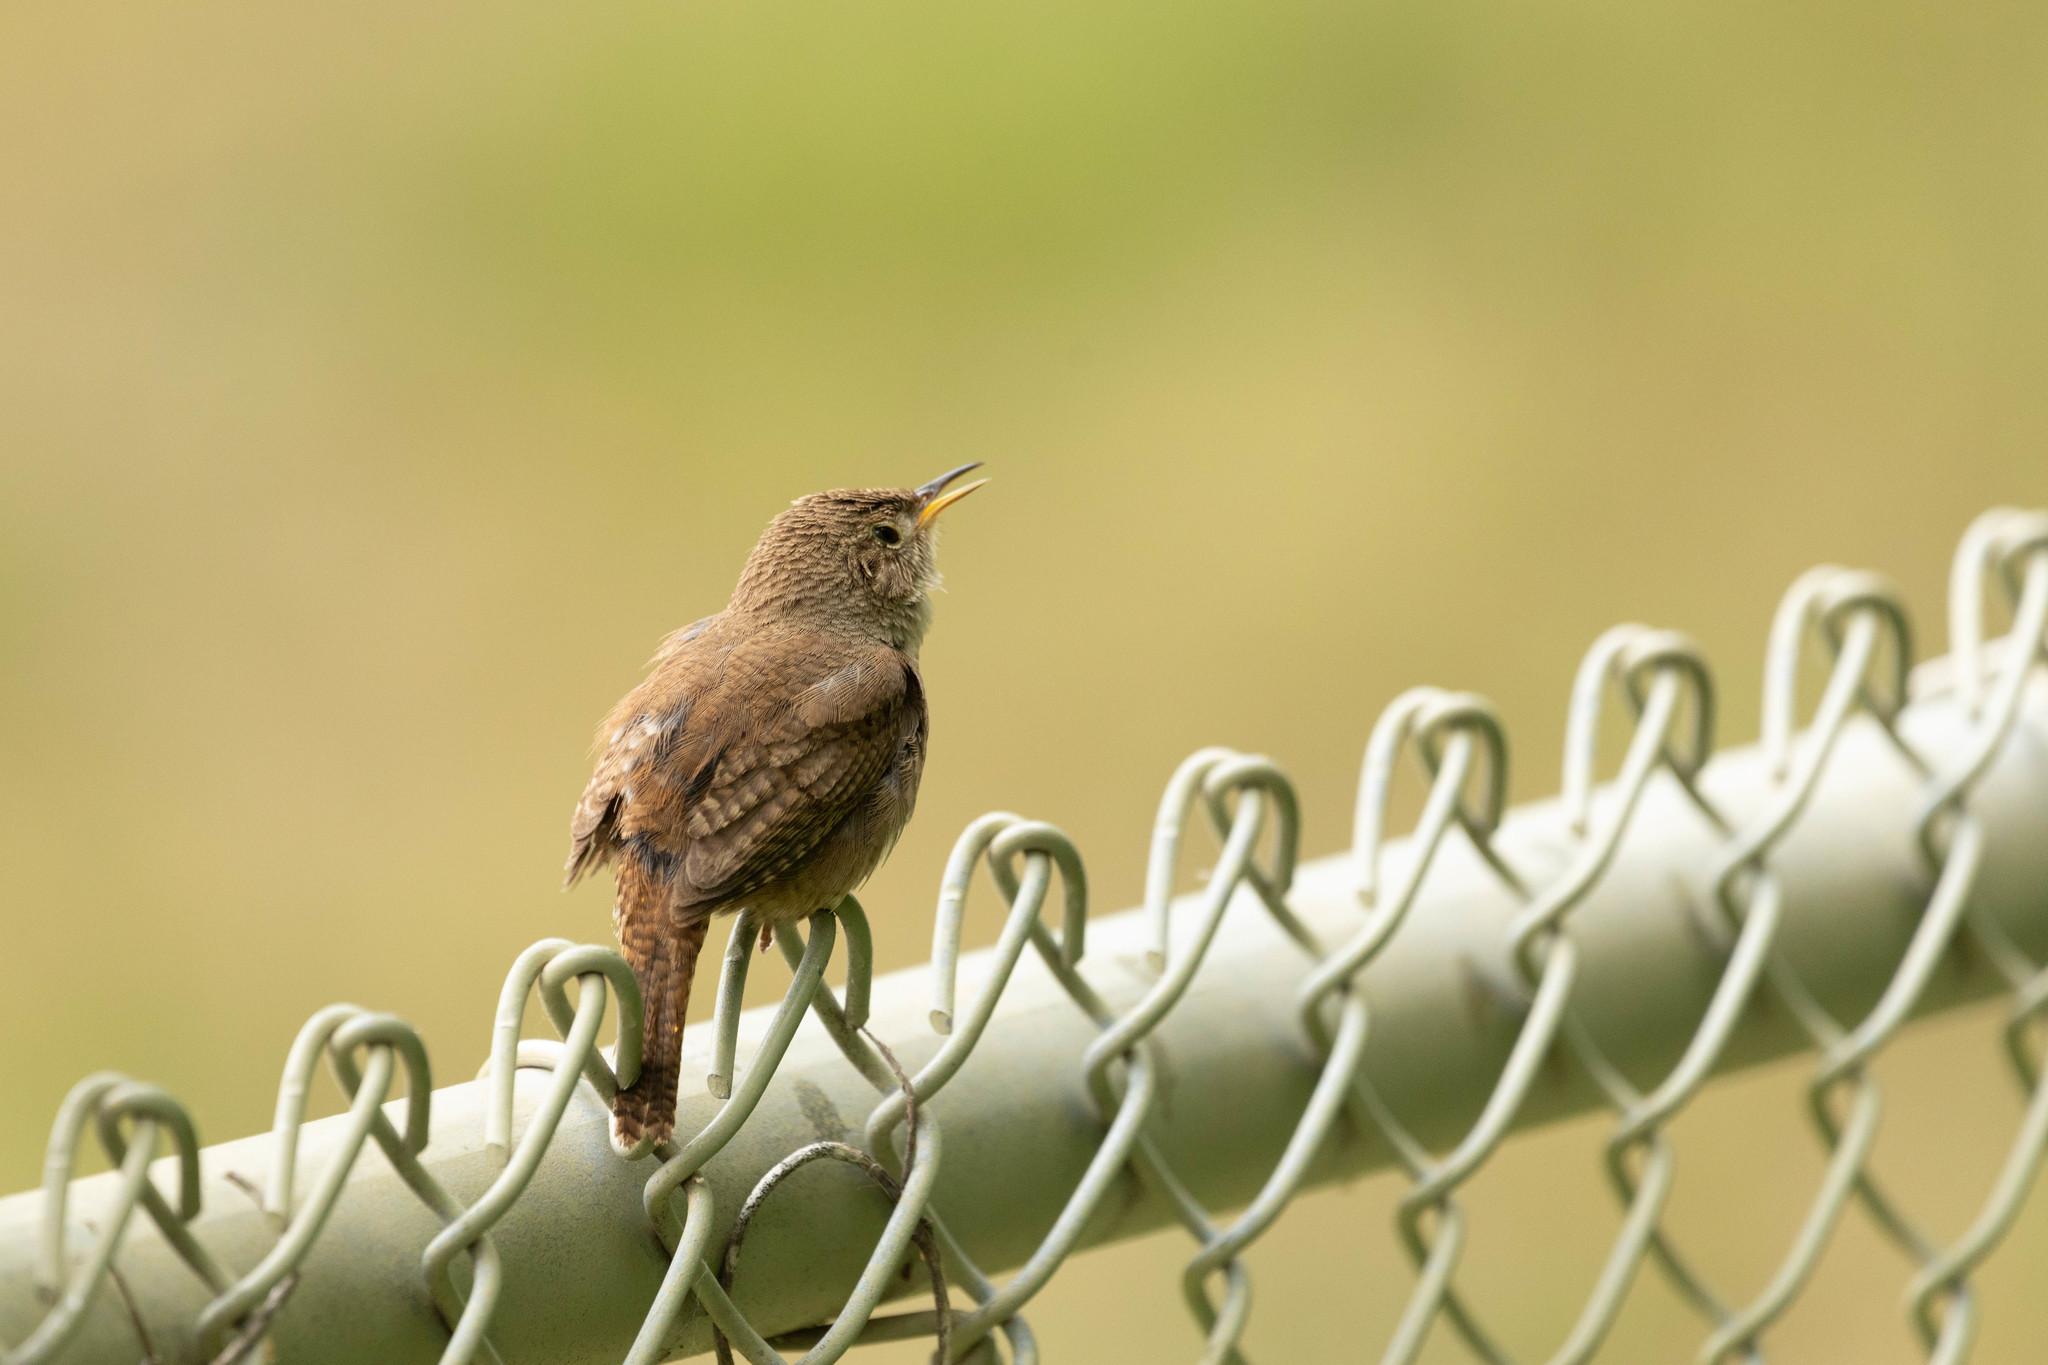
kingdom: Animalia
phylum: Chordata
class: Aves
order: Passeriformes
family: Troglodytidae
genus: Troglodytes
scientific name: Troglodytes aedon
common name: House wren
